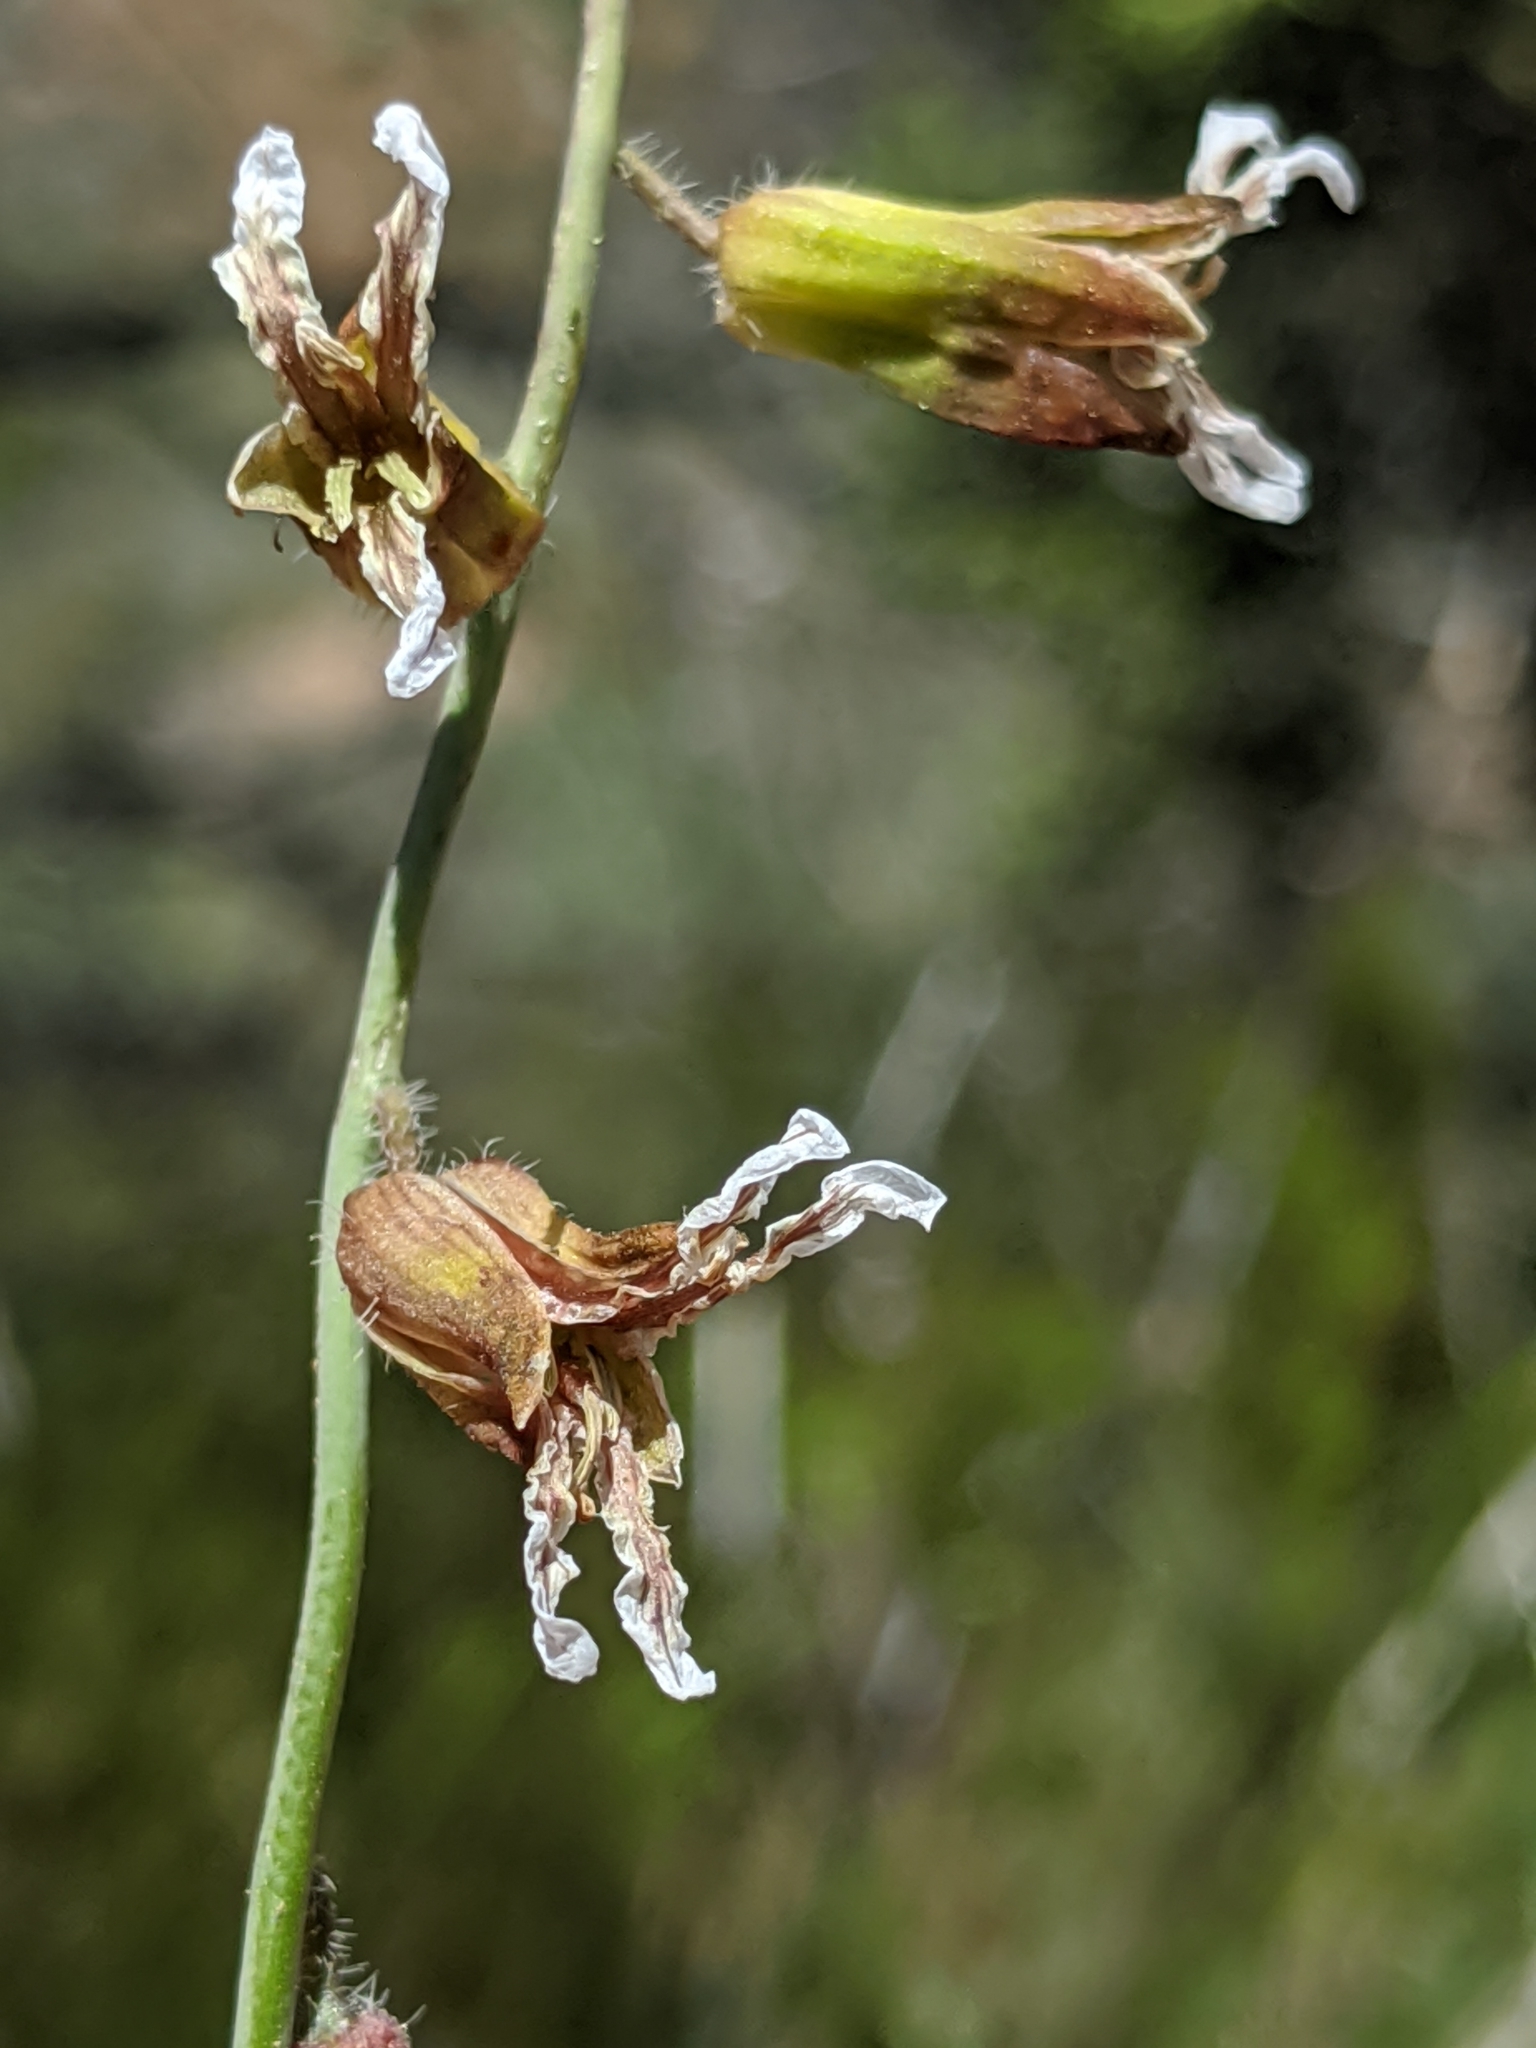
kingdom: Plantae
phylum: Tracheophyta
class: Magnoliopsida
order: Brassicales
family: Brassicaceae
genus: Streptanthus
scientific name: Streptanthus coulteri
